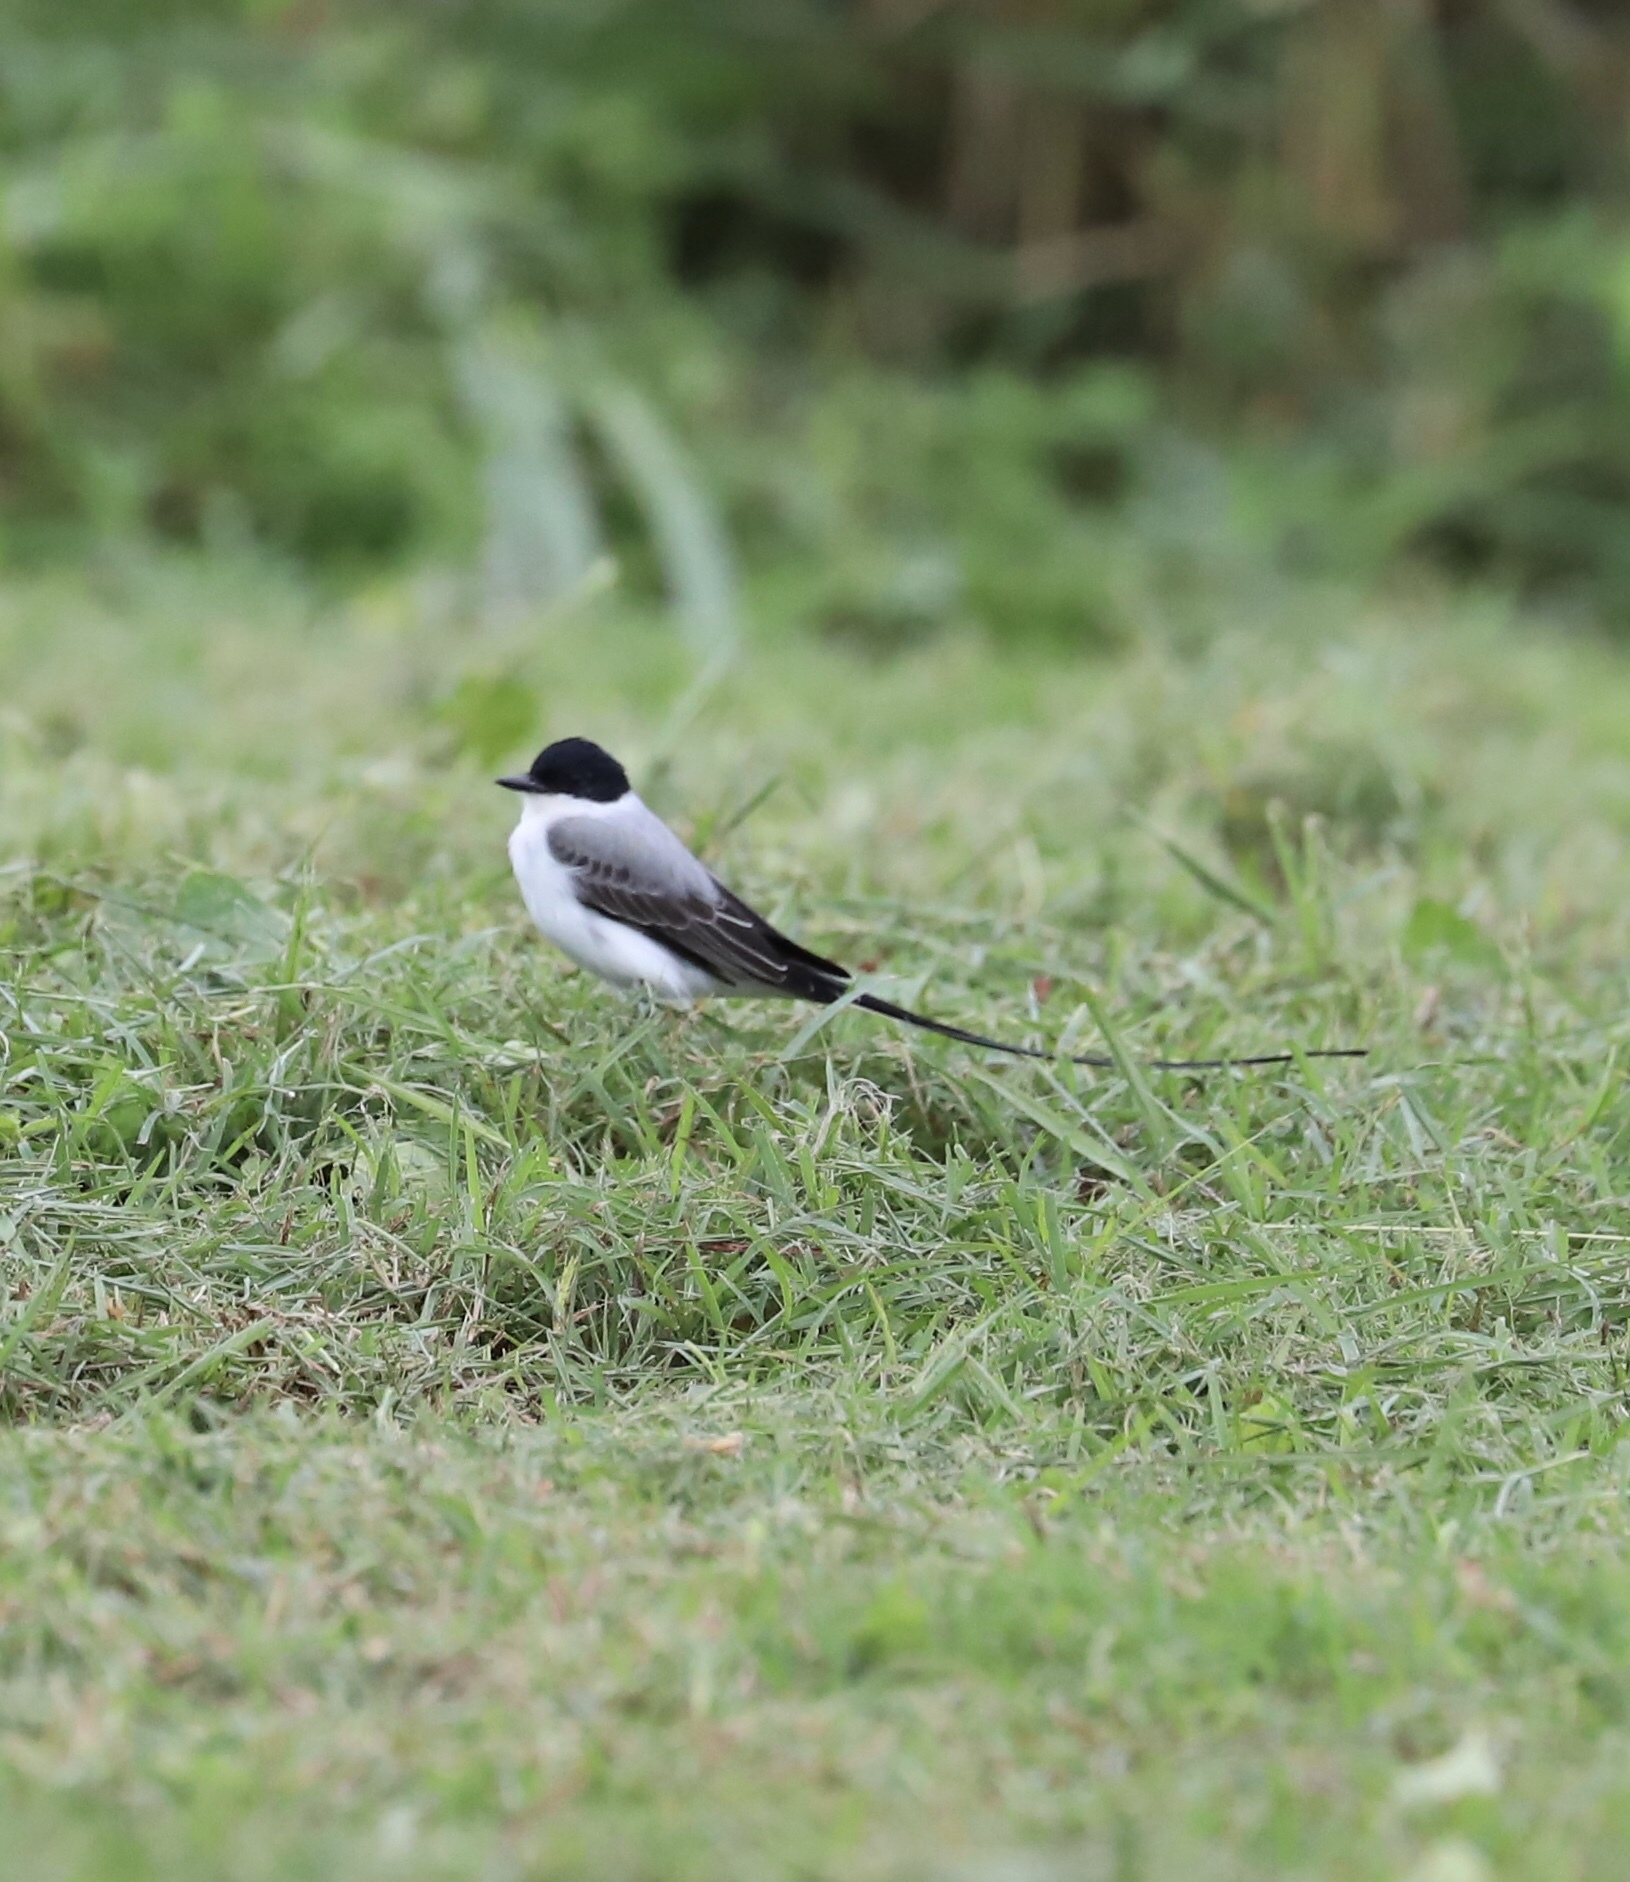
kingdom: Animalia
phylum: Chordata
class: Aves
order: Passeriformes
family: Tyrannidae
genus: Tyrannus
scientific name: Tyrannus savana
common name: Fork-tailed flycatcher
